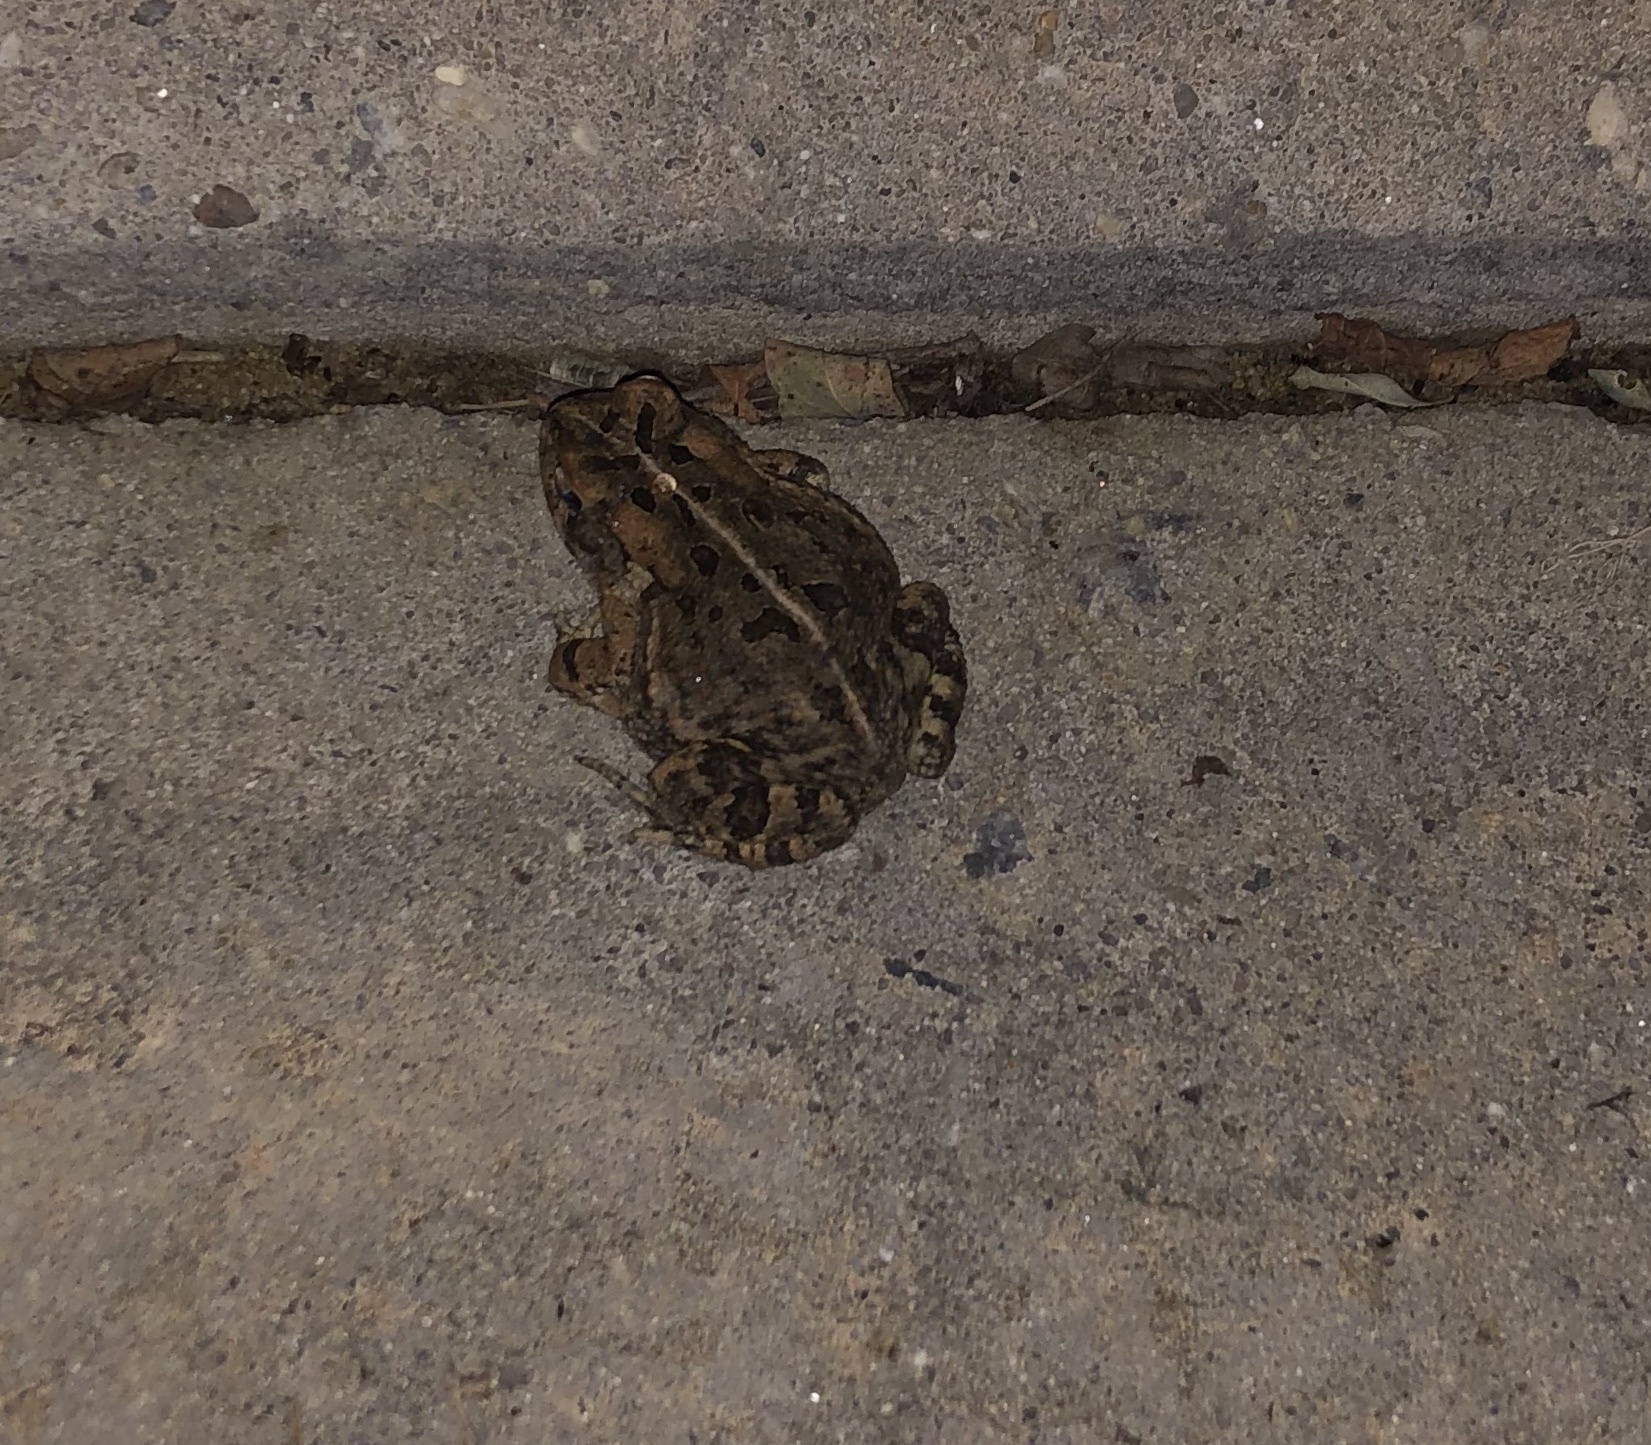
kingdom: Animalia
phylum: Chordata
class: Amphibia
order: Anura
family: Bufonidae
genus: Anaxyrus
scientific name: Anaxyrus fowleri
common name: Fowler's toad
